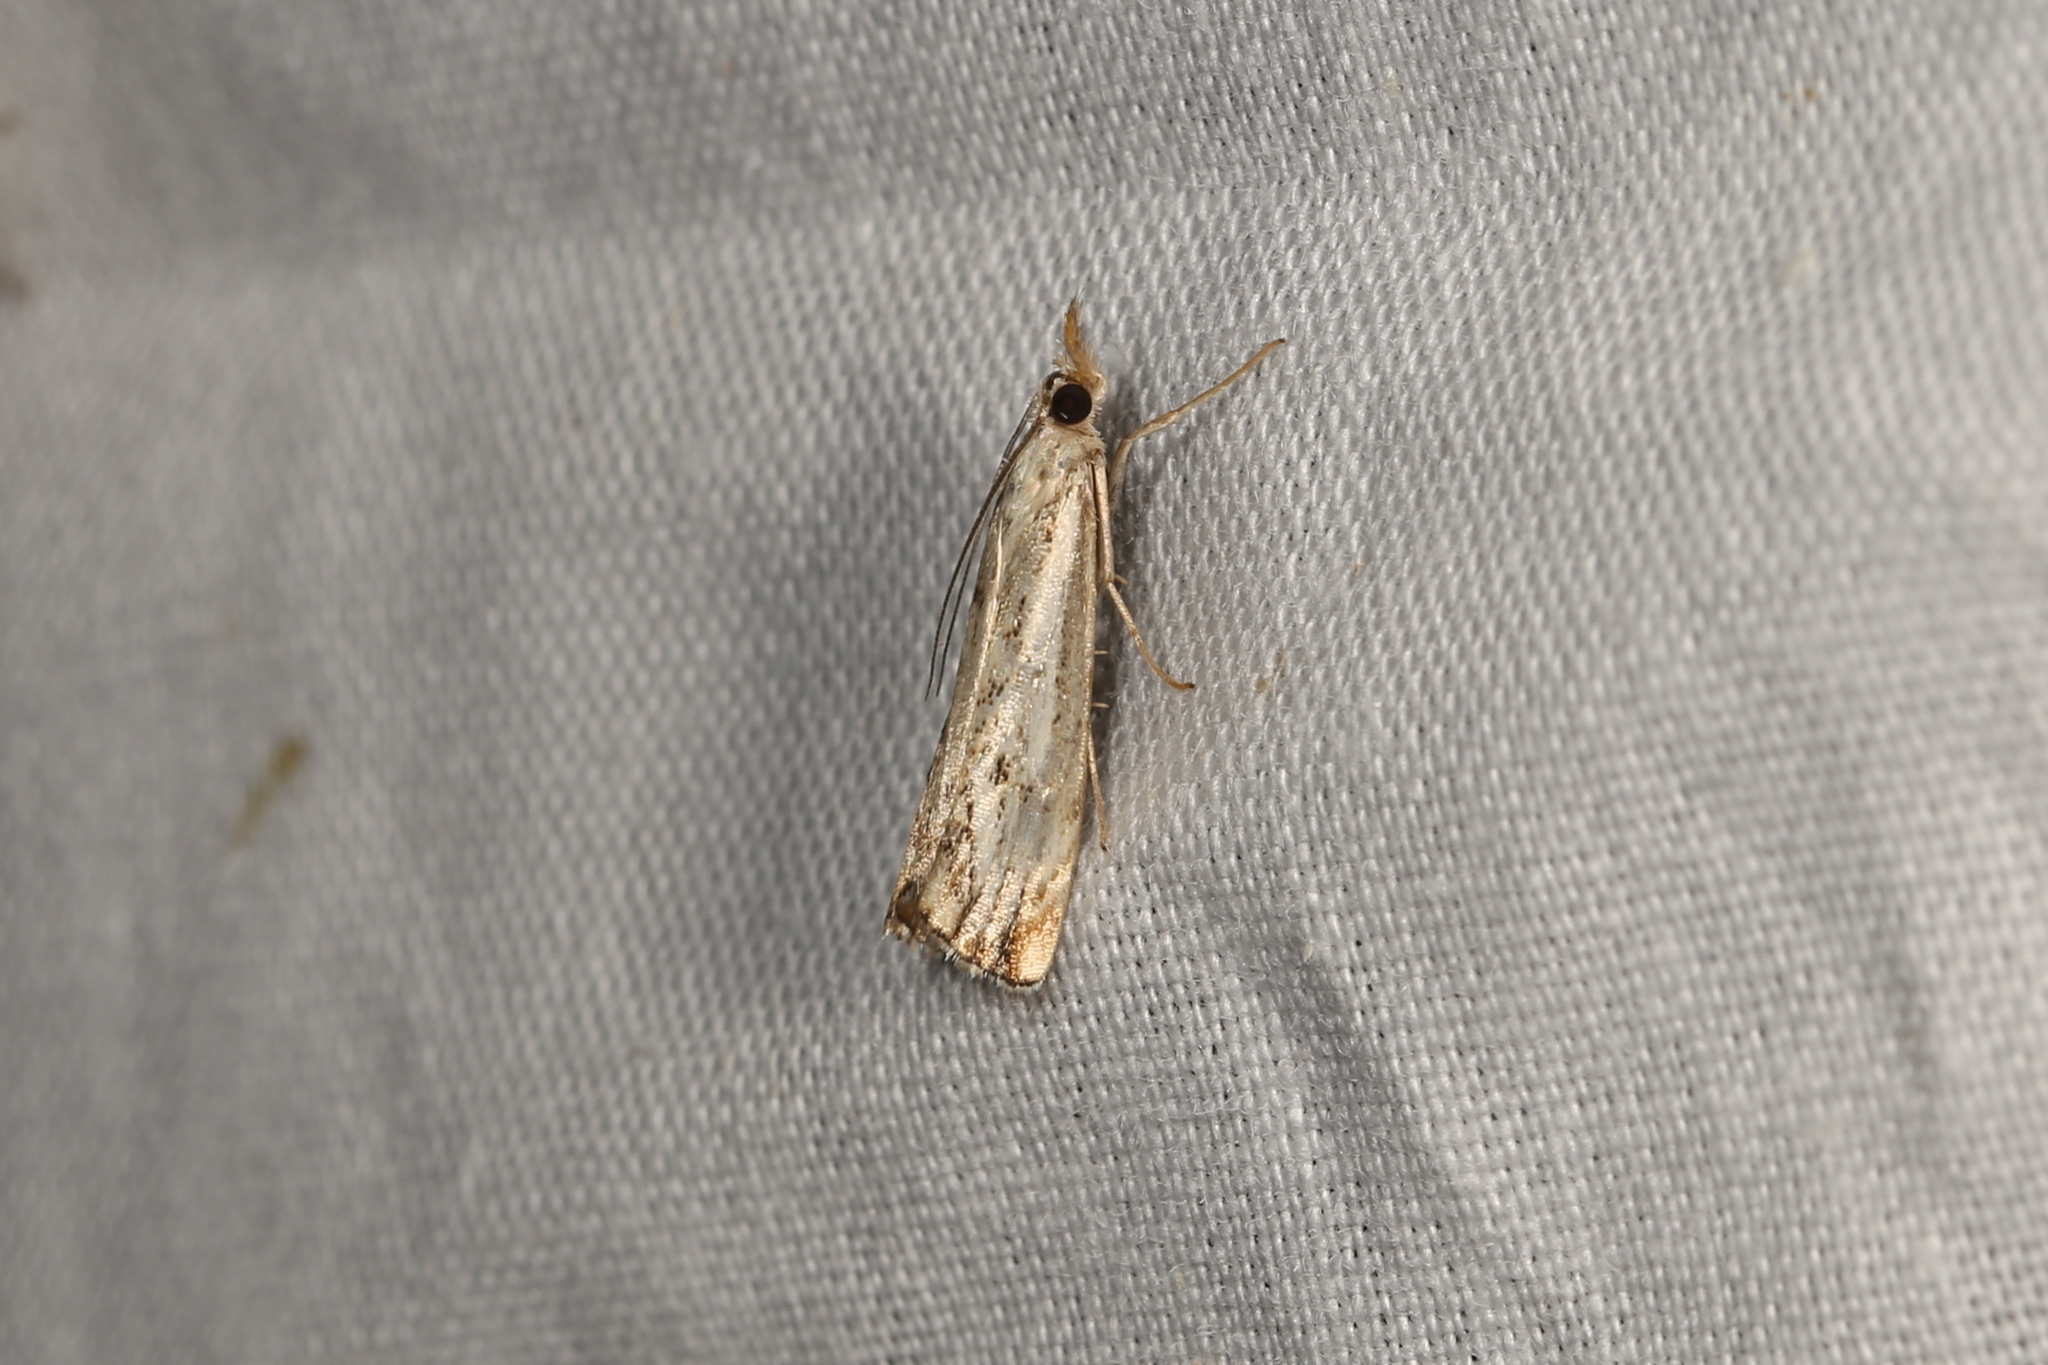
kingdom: Animalia
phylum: Arthropoda
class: Insecta
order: Lepidoptera
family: Crambidae
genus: Catoptria
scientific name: Catoptria falsella
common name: Chequered grass-veneer
